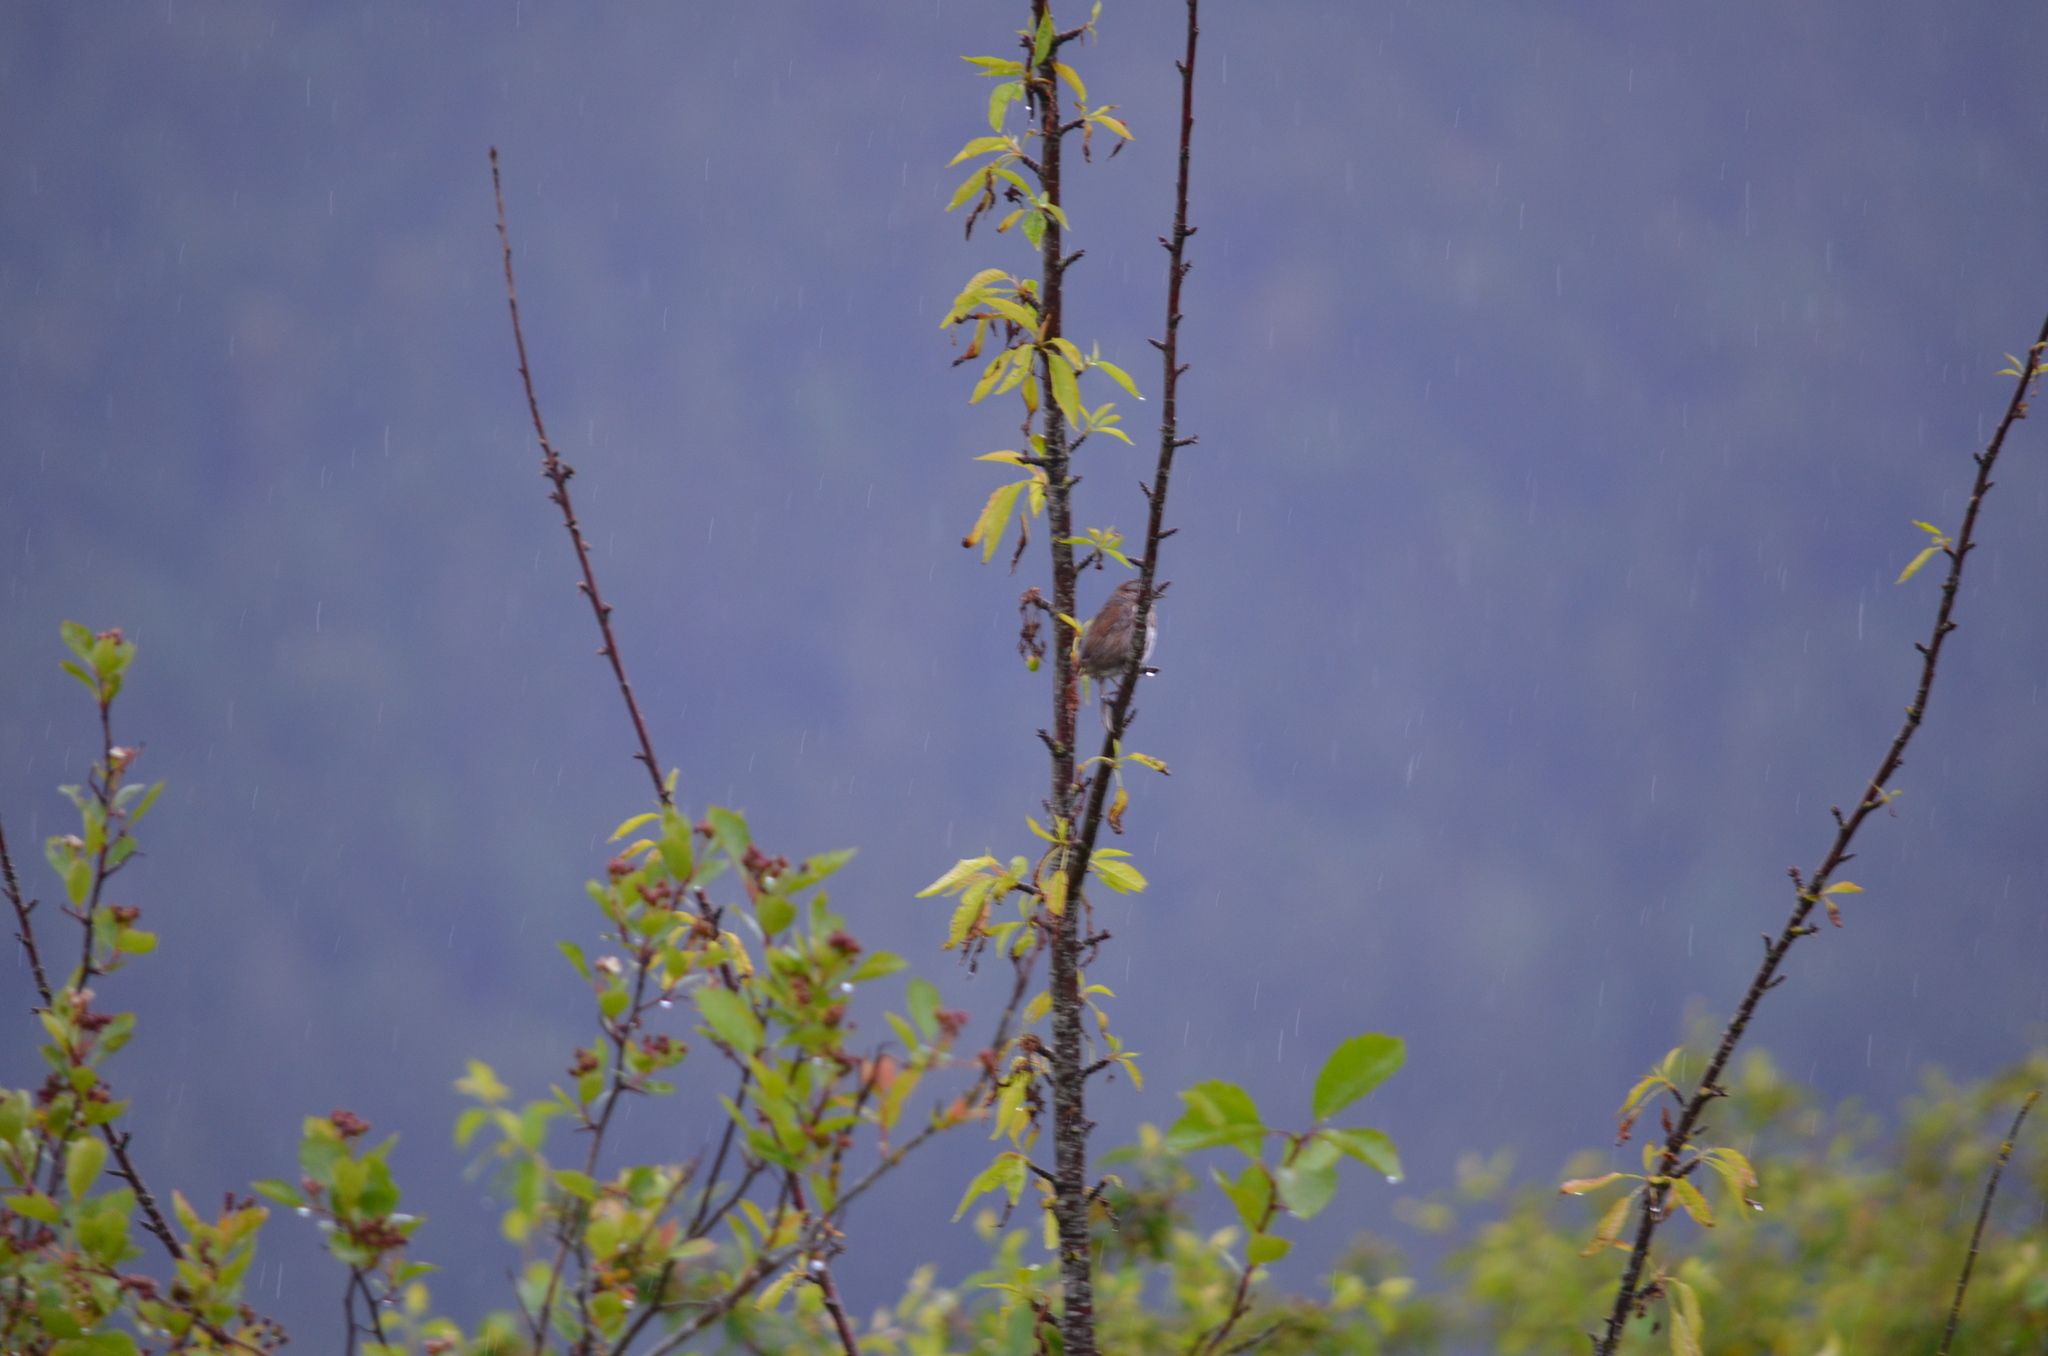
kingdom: Animalia
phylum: Chordata
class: Aves
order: Passeriformes
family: Passerellidae
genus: Melospiza
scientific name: Melospiza melodia
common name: Song sparrow
